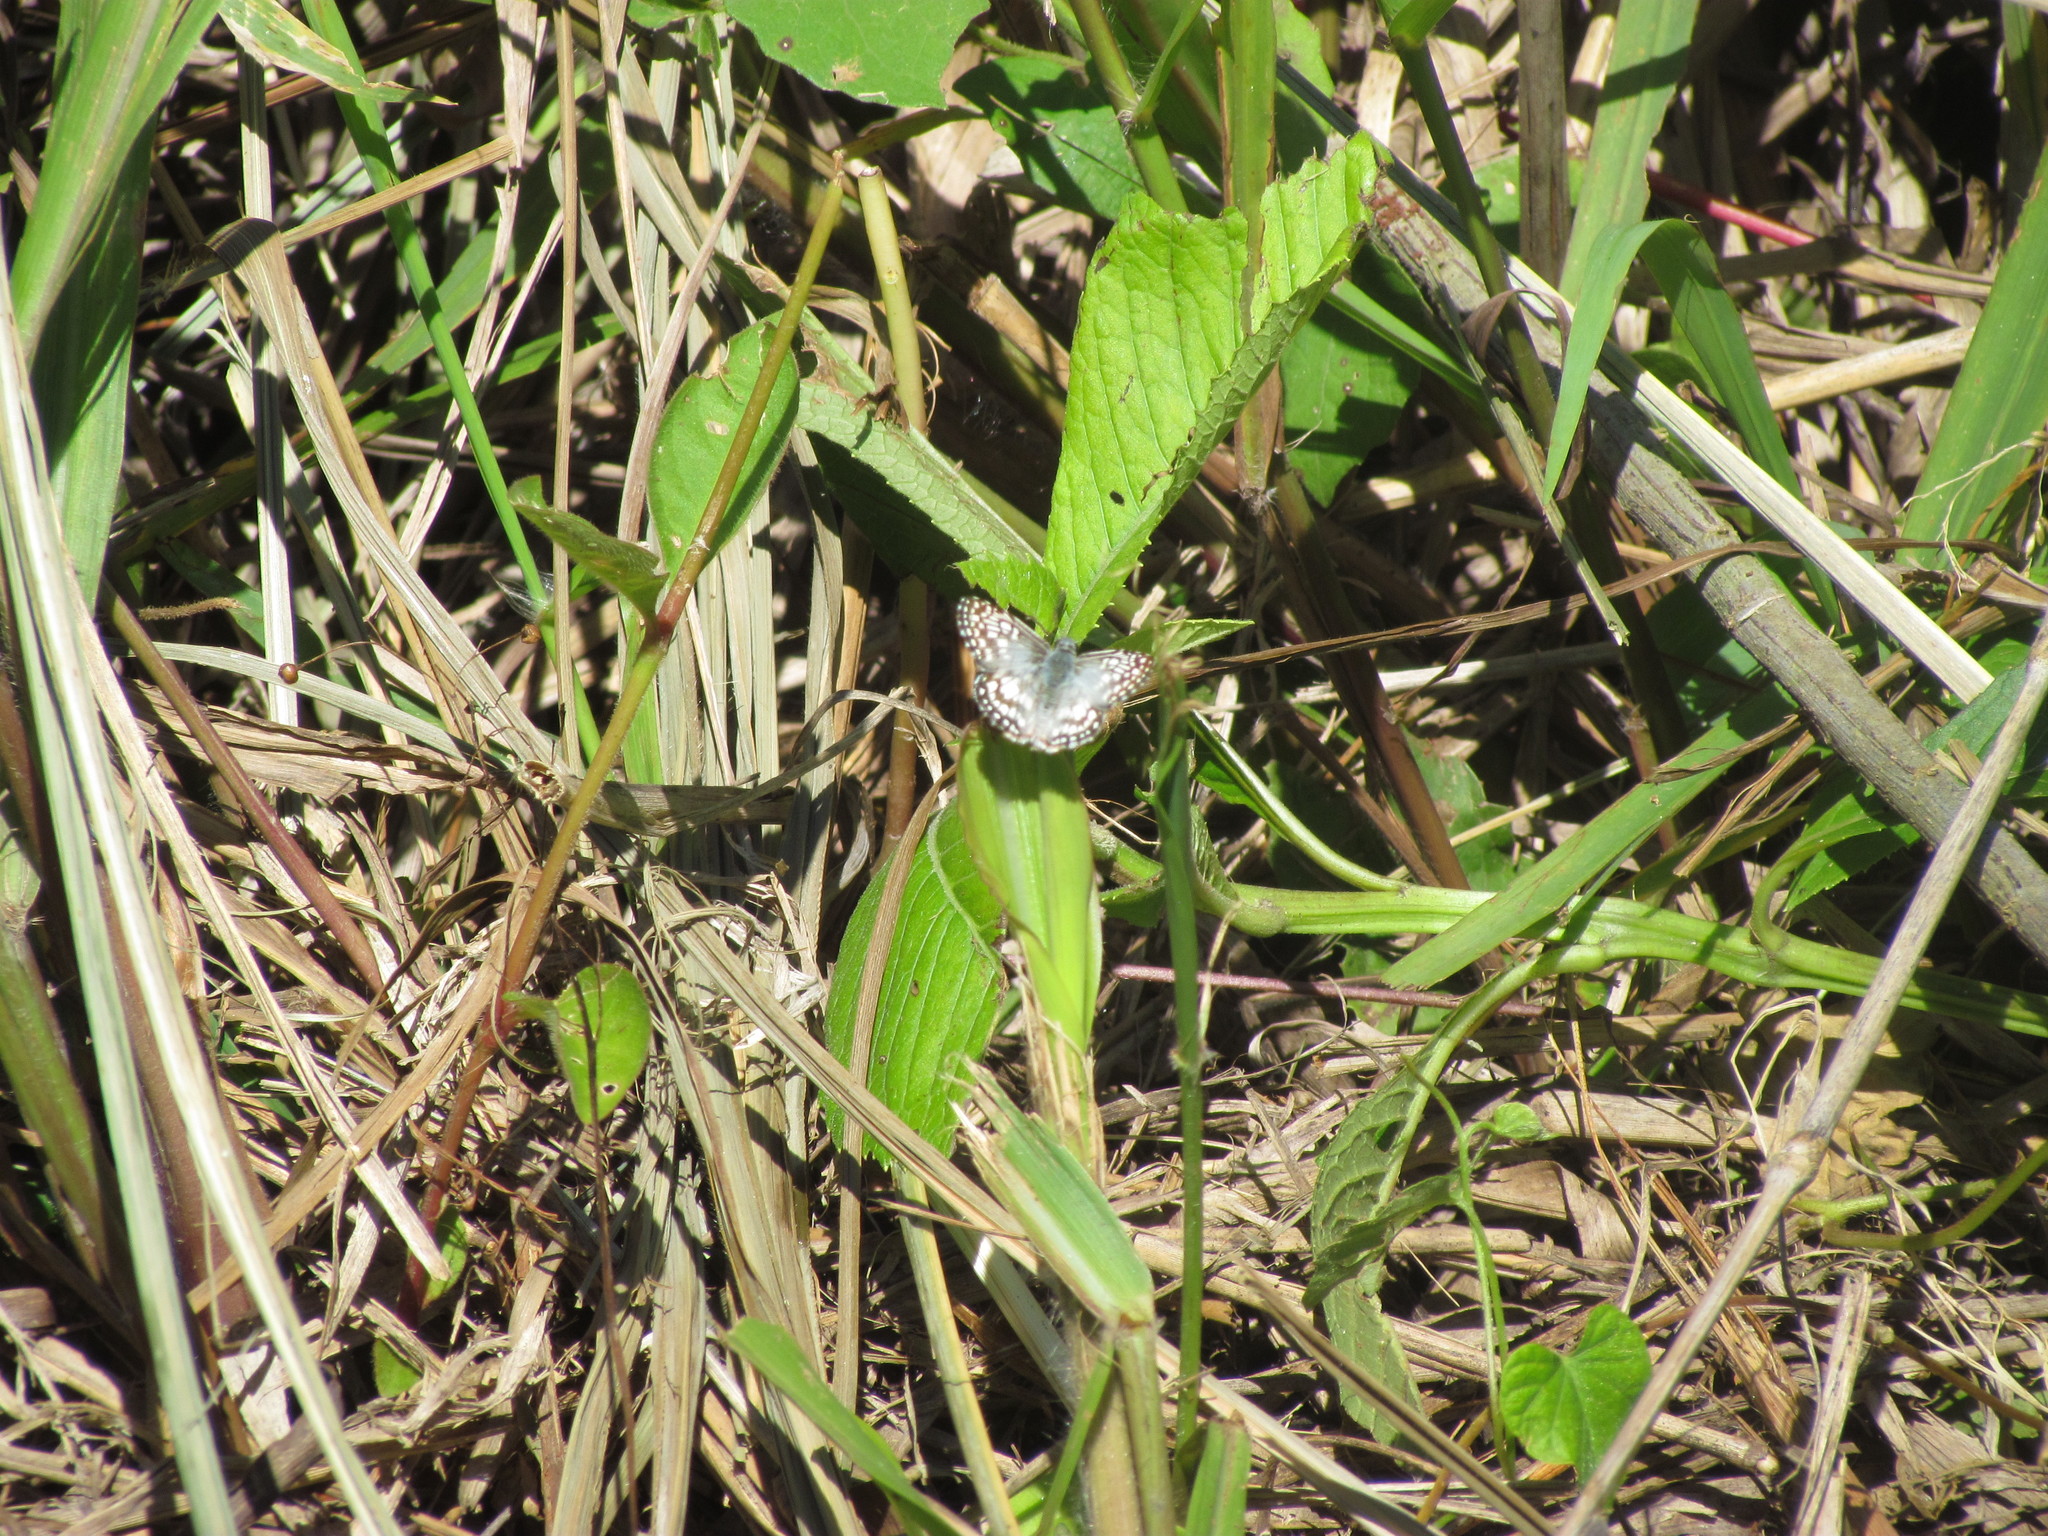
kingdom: Animalia
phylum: Arthropoda
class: Insecta
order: Lepidoptera
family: Hesperiidae
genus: Pyrgus
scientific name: Pyrgus oileus
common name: Tropical checkered-skipper
